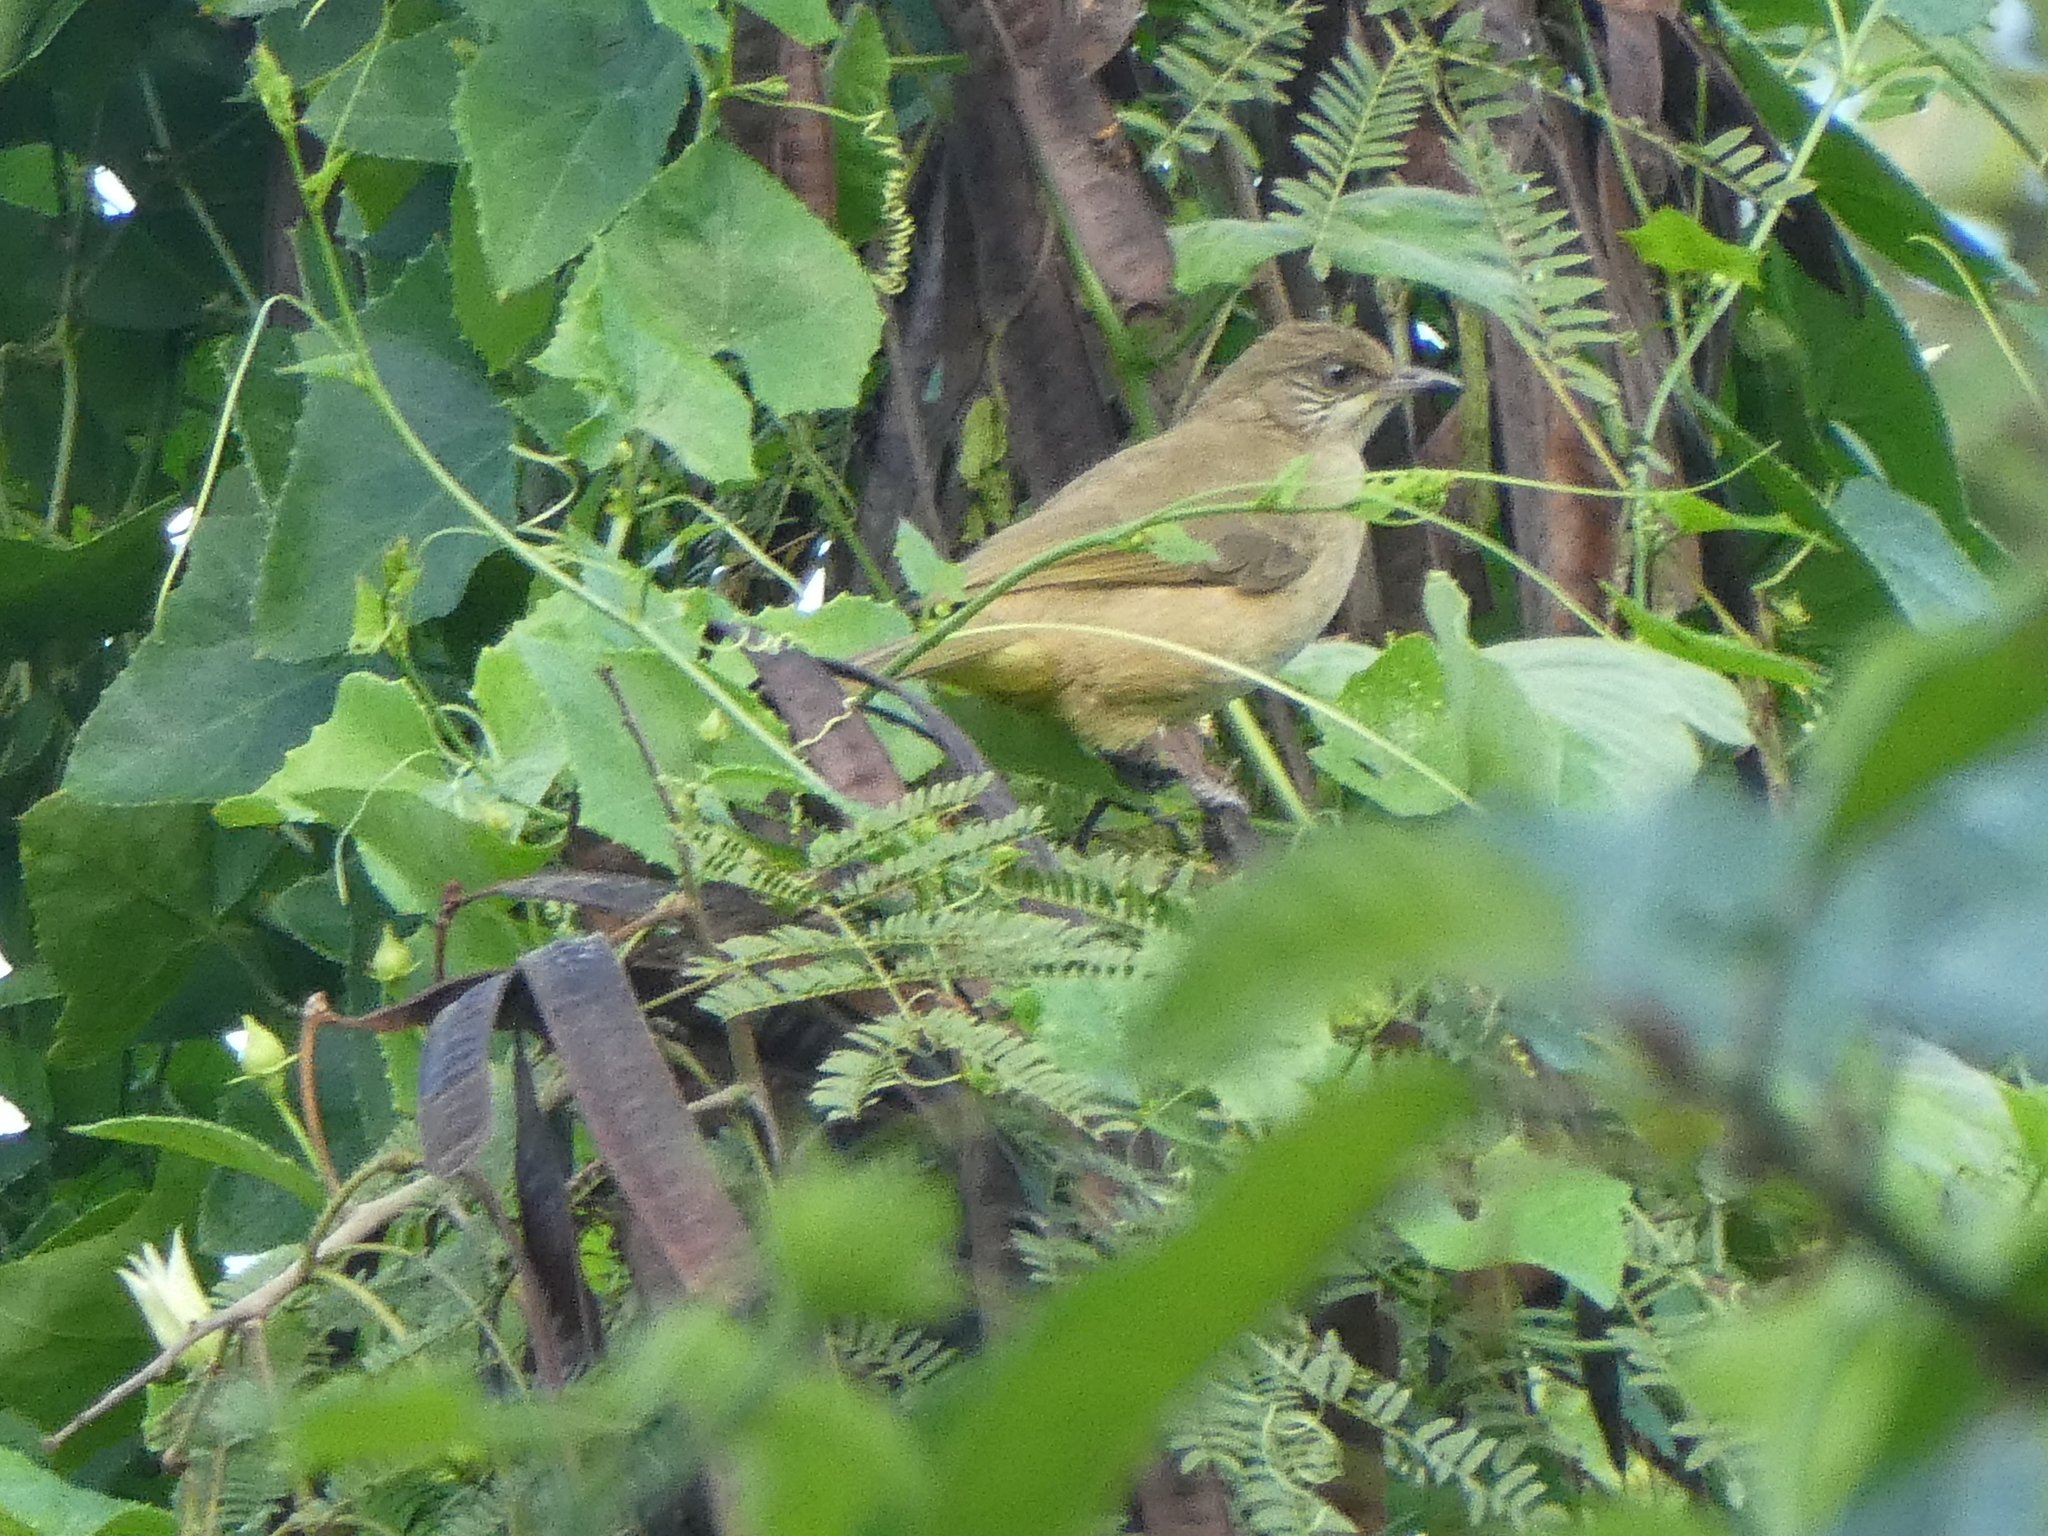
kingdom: Animalia
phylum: Chordata
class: Aves
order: Passeriformes
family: Pycnonotidae
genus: Pycnonotus
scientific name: Pycnonotus blanfordi
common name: Streak-eared bulbul
